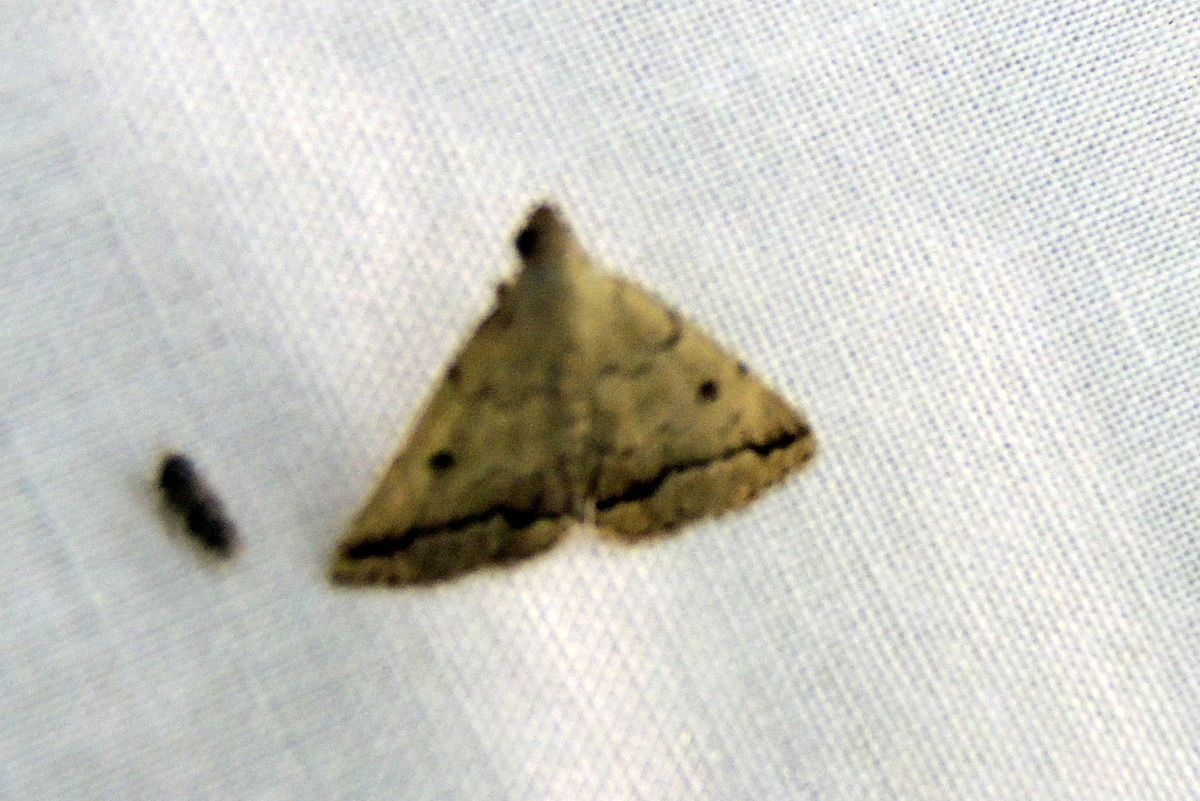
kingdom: Animalia
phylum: Arthropoda
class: Insecta
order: Lepidoptera
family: Erebidae
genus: Zanclognatha
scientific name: Zanclognatha
